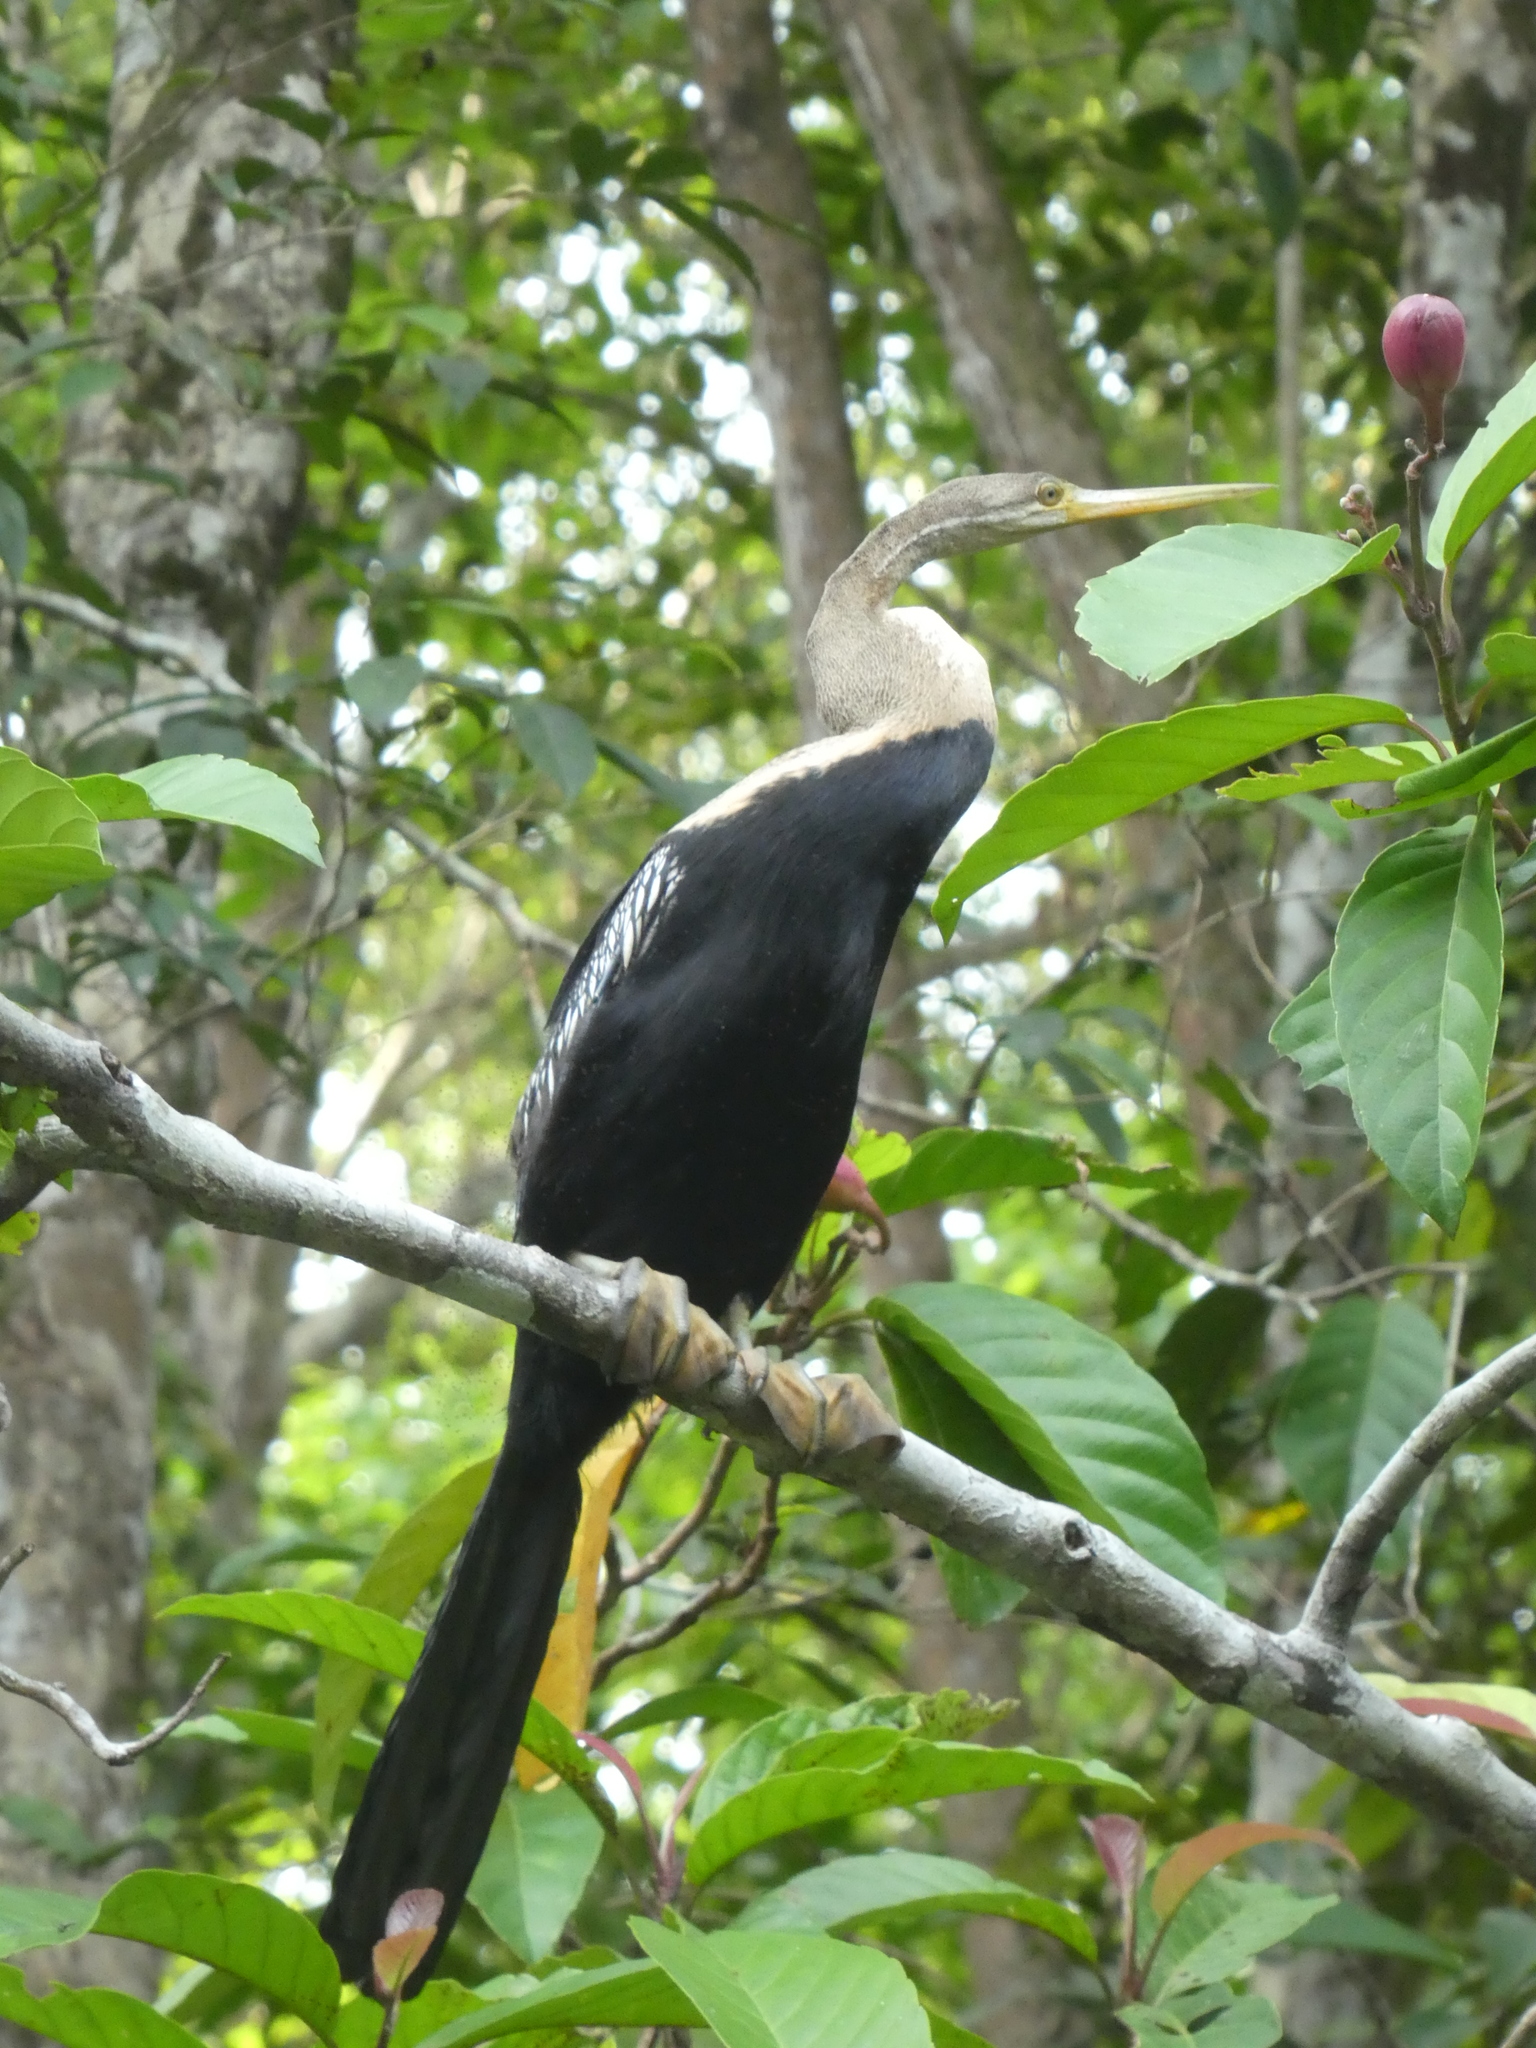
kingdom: Animalia
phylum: Chordata
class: Aves
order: Suliformes
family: Anhingidae
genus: Anhinga
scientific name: Anhinga melanogaster
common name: Oriental darter
